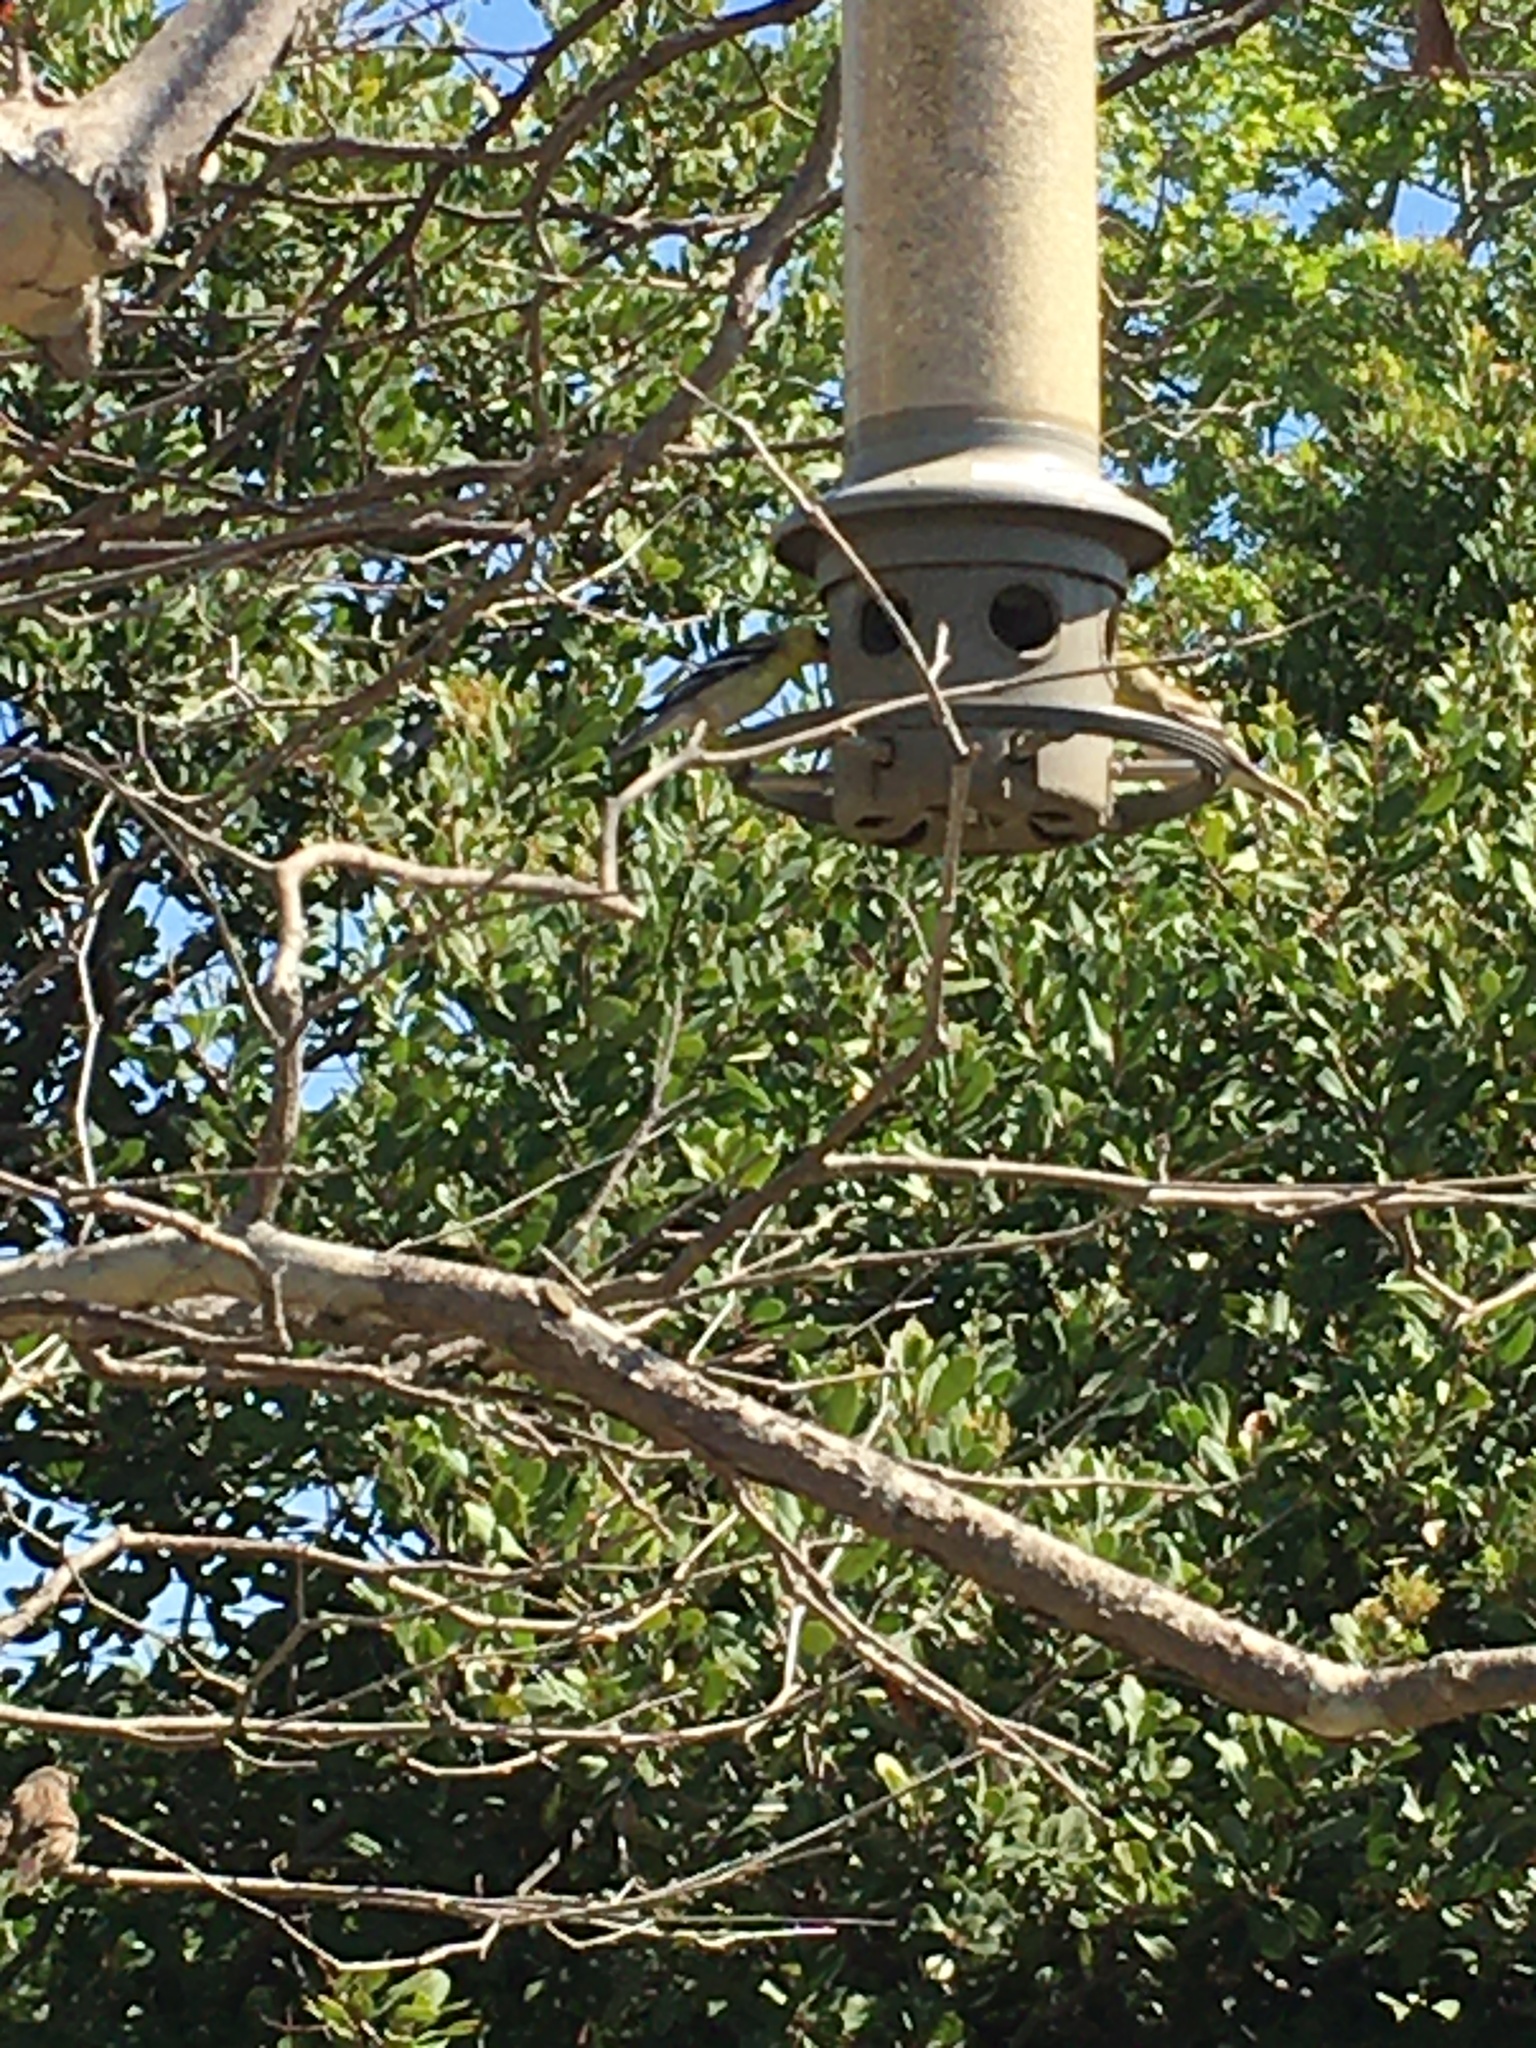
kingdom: Animalia
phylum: Chordata
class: Aves
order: Passeriformes
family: Fringillidae
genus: Spinus
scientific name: Spinus tristis
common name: American goldfinch
